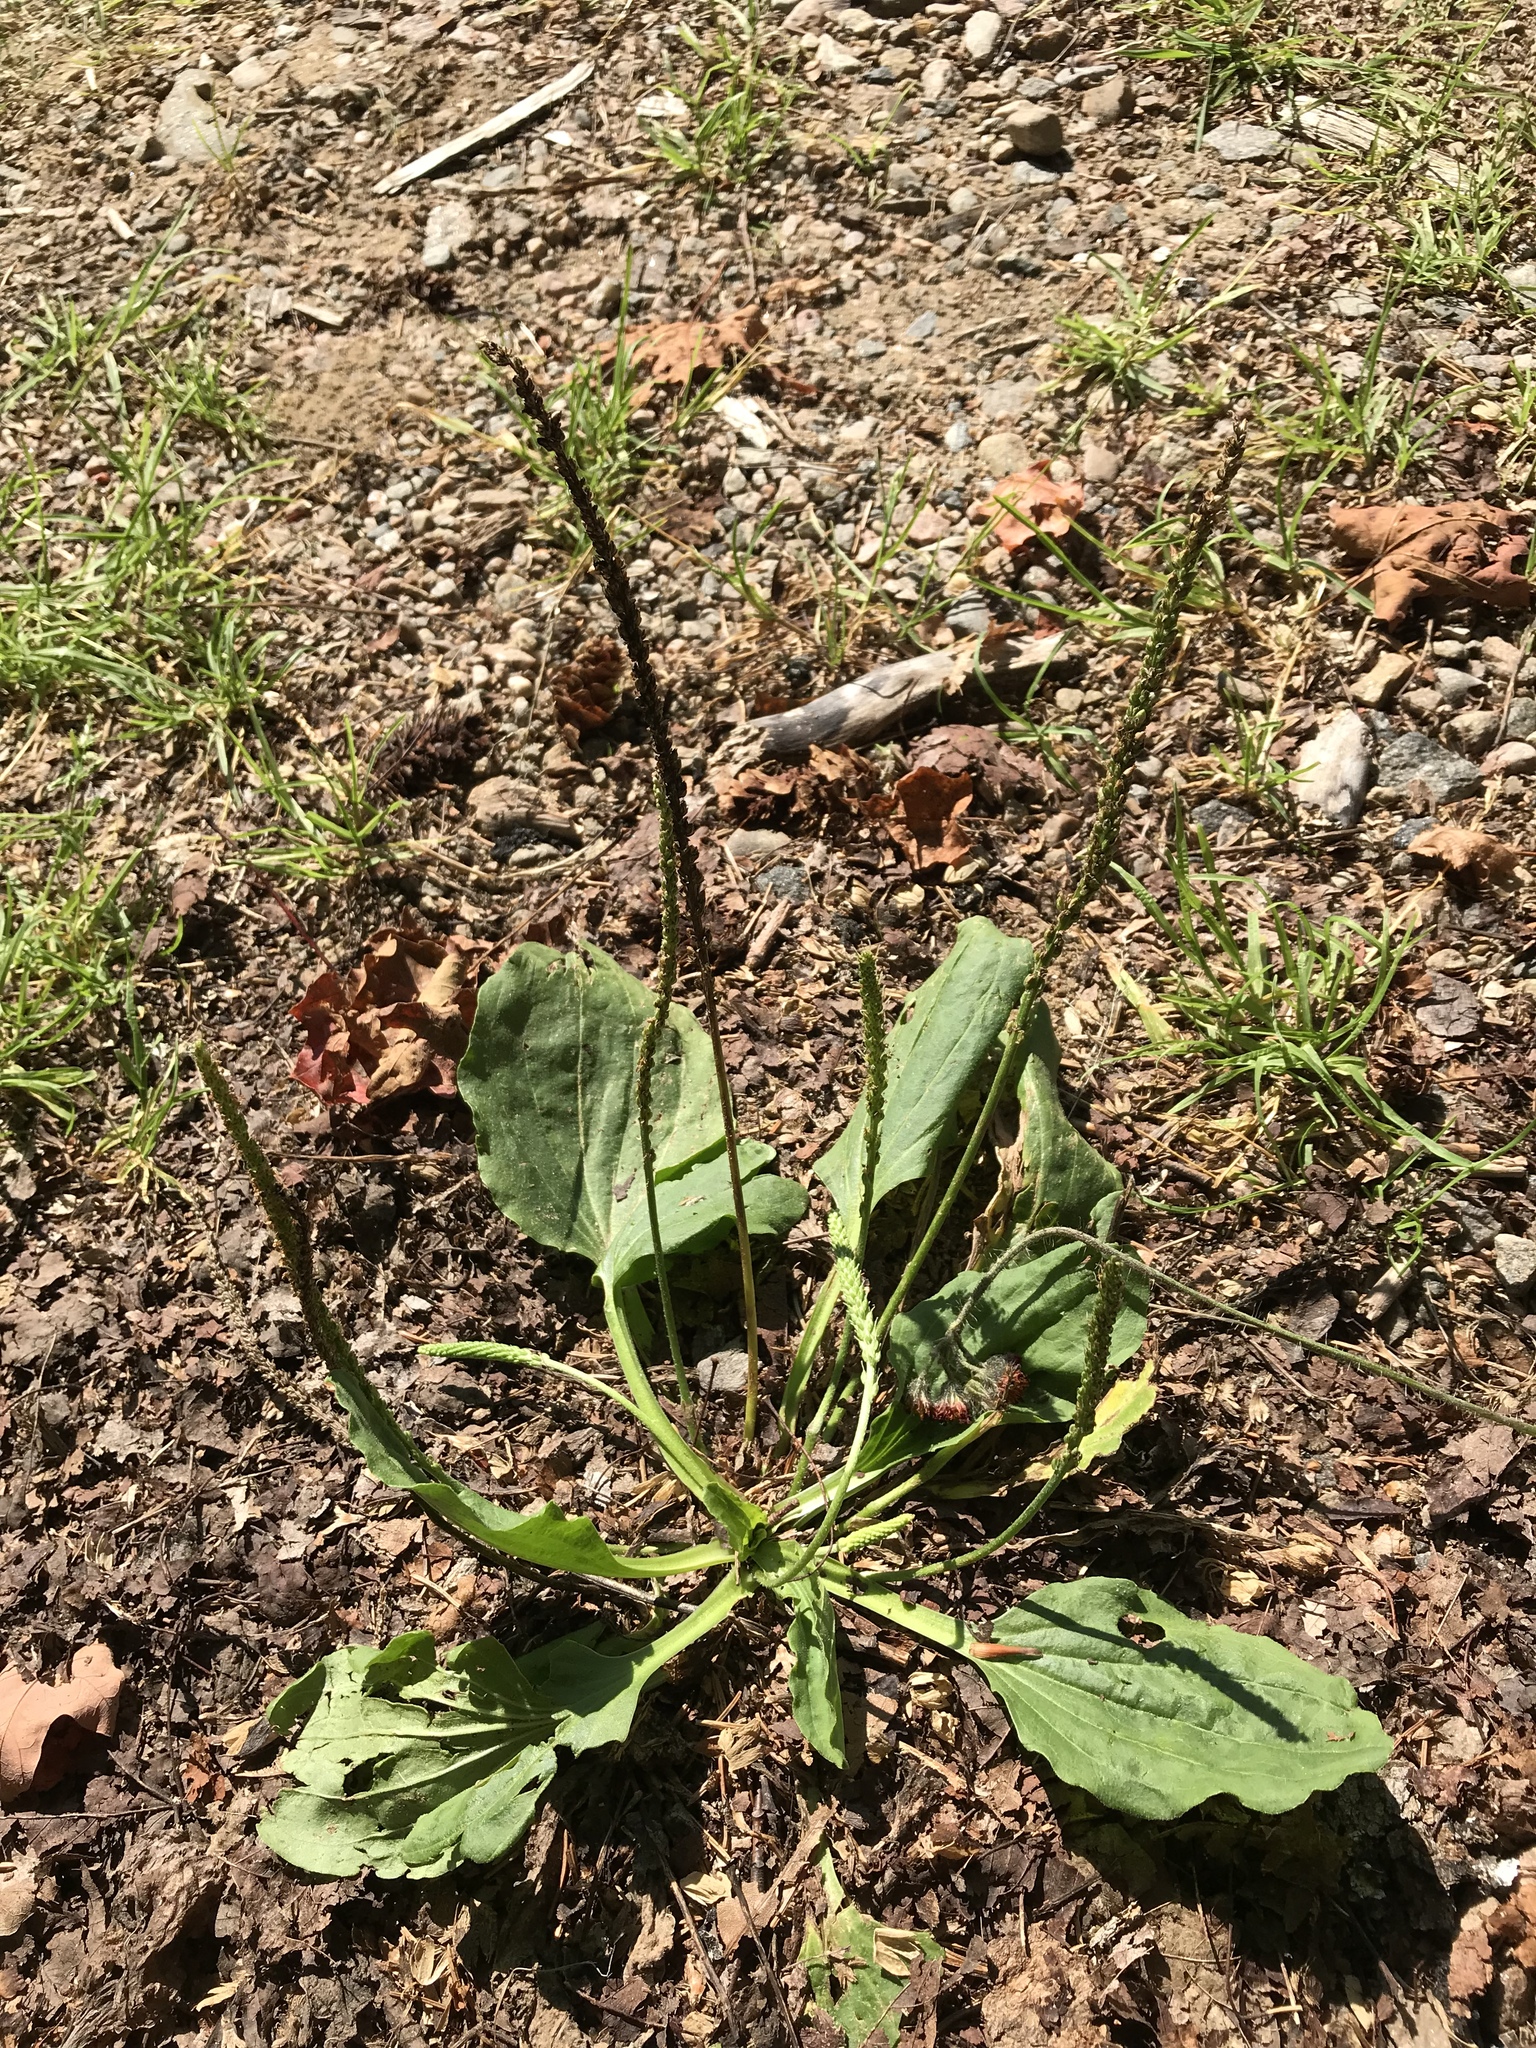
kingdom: Plantae
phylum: Tracheophyta
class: Magnoliopsida
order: Lamiales
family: Plantaginaceae
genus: Plantago
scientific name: Plantago major
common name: Common plantain
